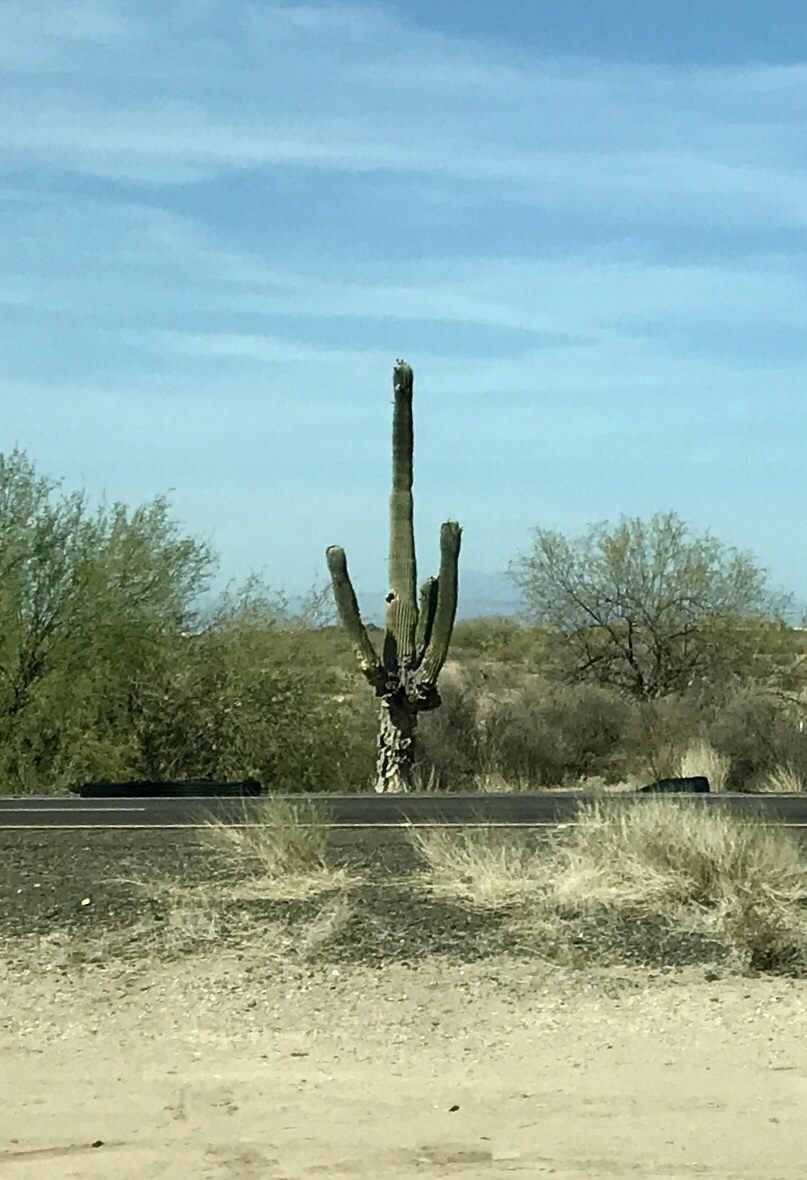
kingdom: Plantae
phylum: Tracheophyta
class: Magnoliopsida
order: Caryophyllales
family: Cactaceae
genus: Carnegiea
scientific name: Carnegiea gigantea
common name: Saguaro
